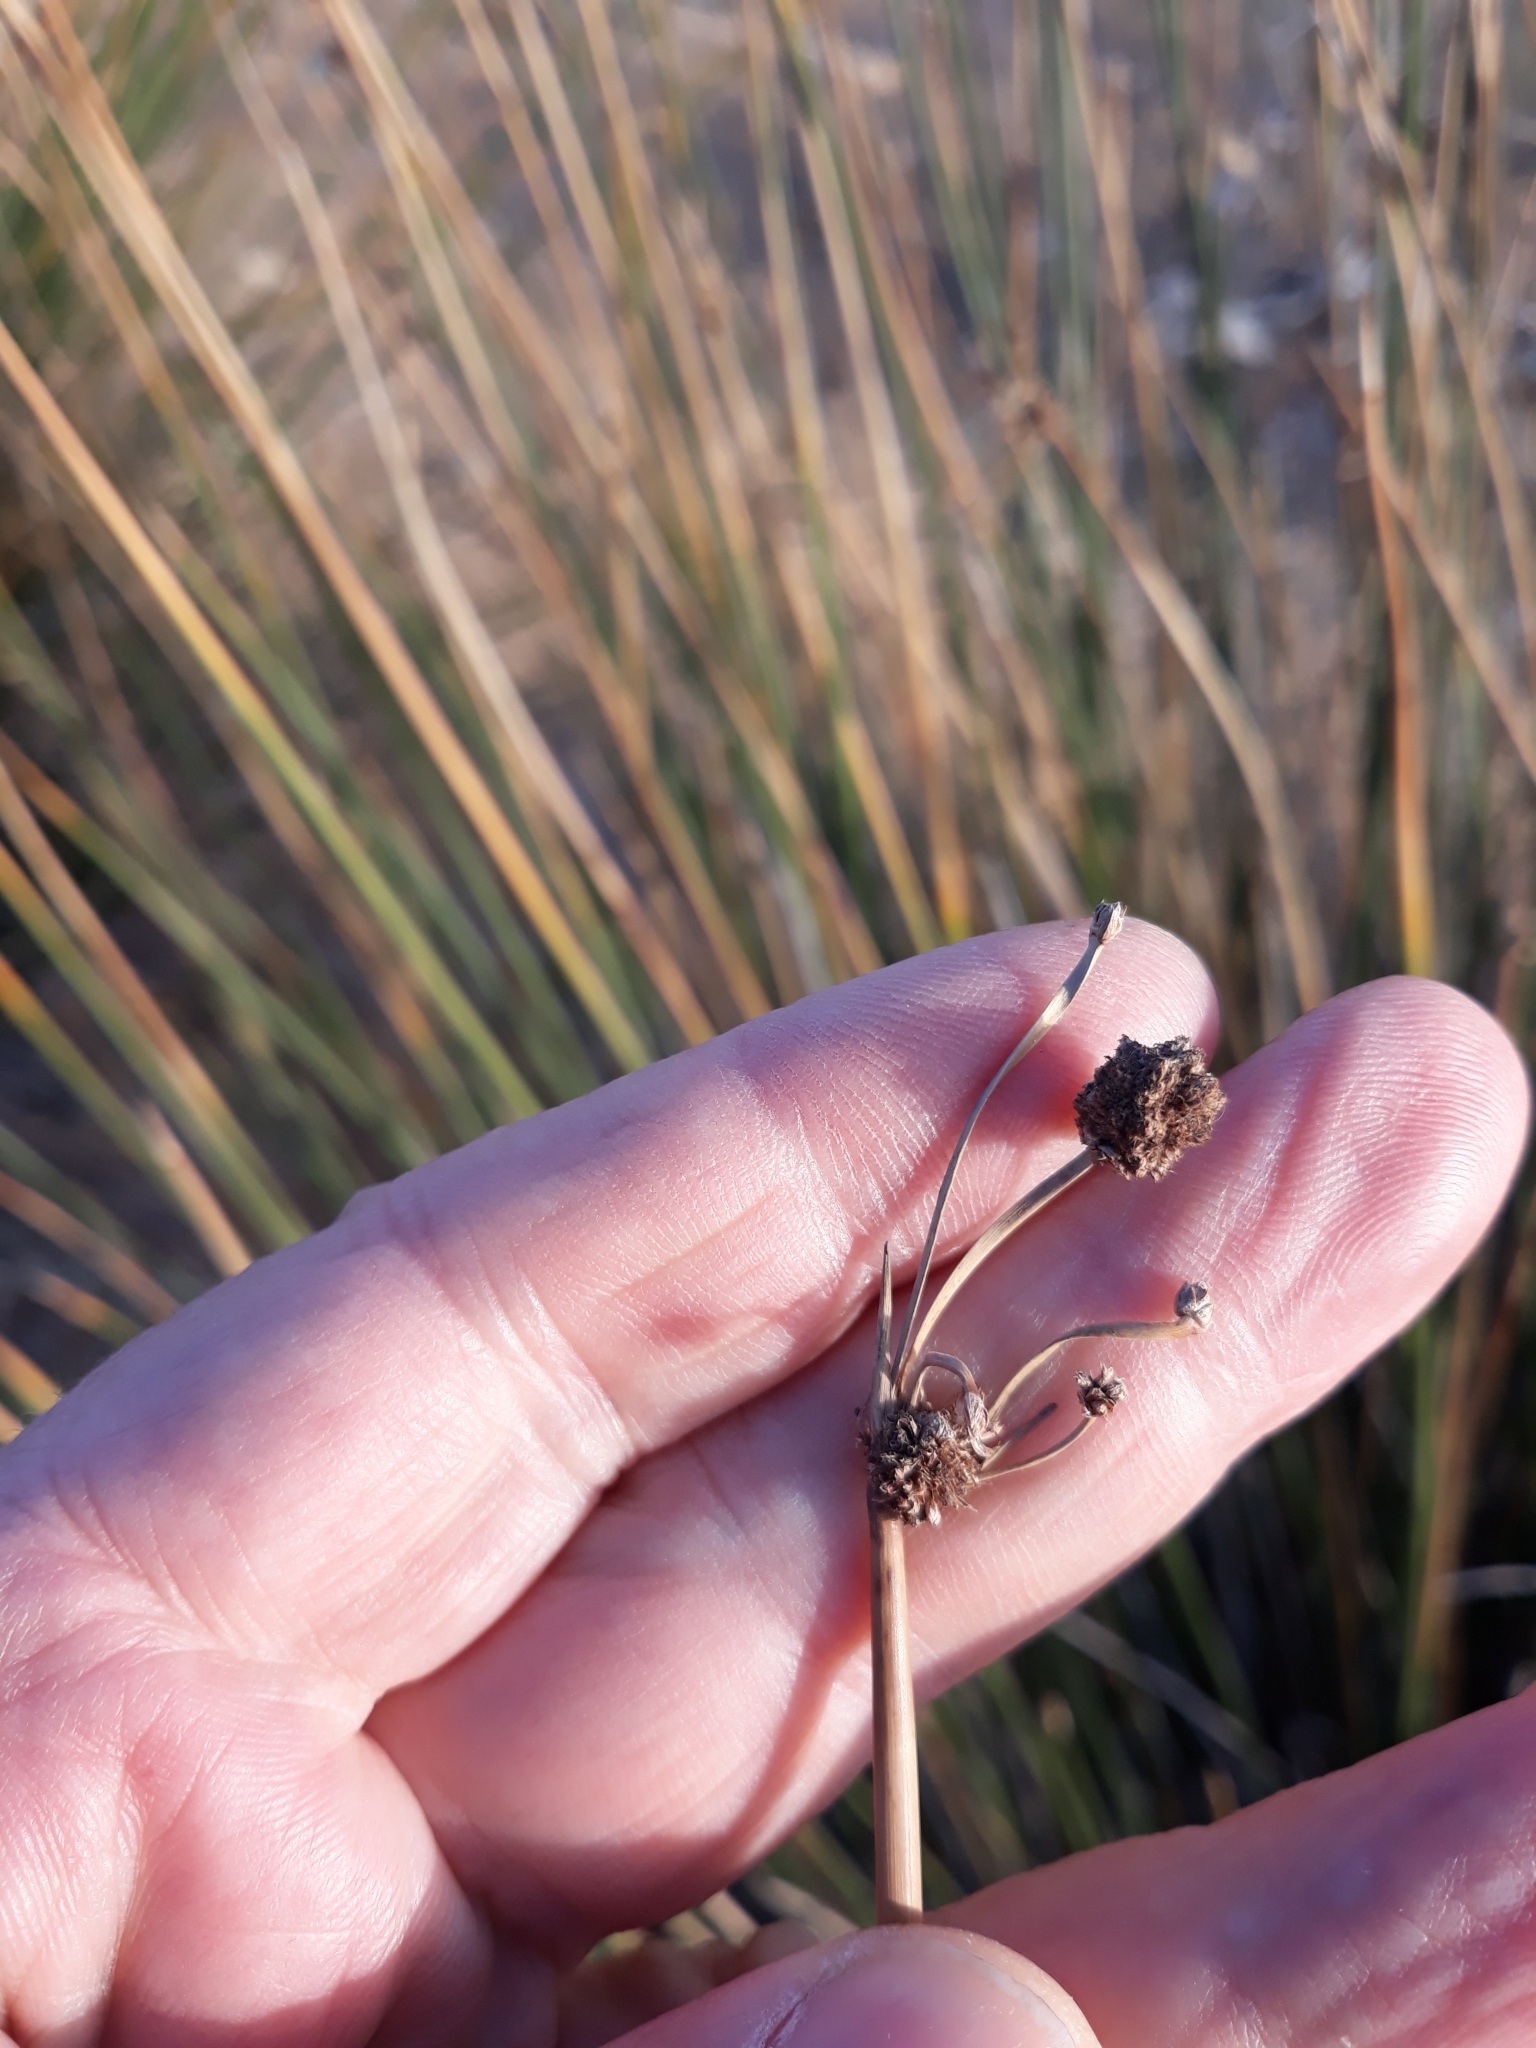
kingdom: Plantae
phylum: Tracheophyta
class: Liliopsida
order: Poales
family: Cyperaceae
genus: Scirpoides
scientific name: Scirpoides holoschoenus
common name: Round-headed club-rush
